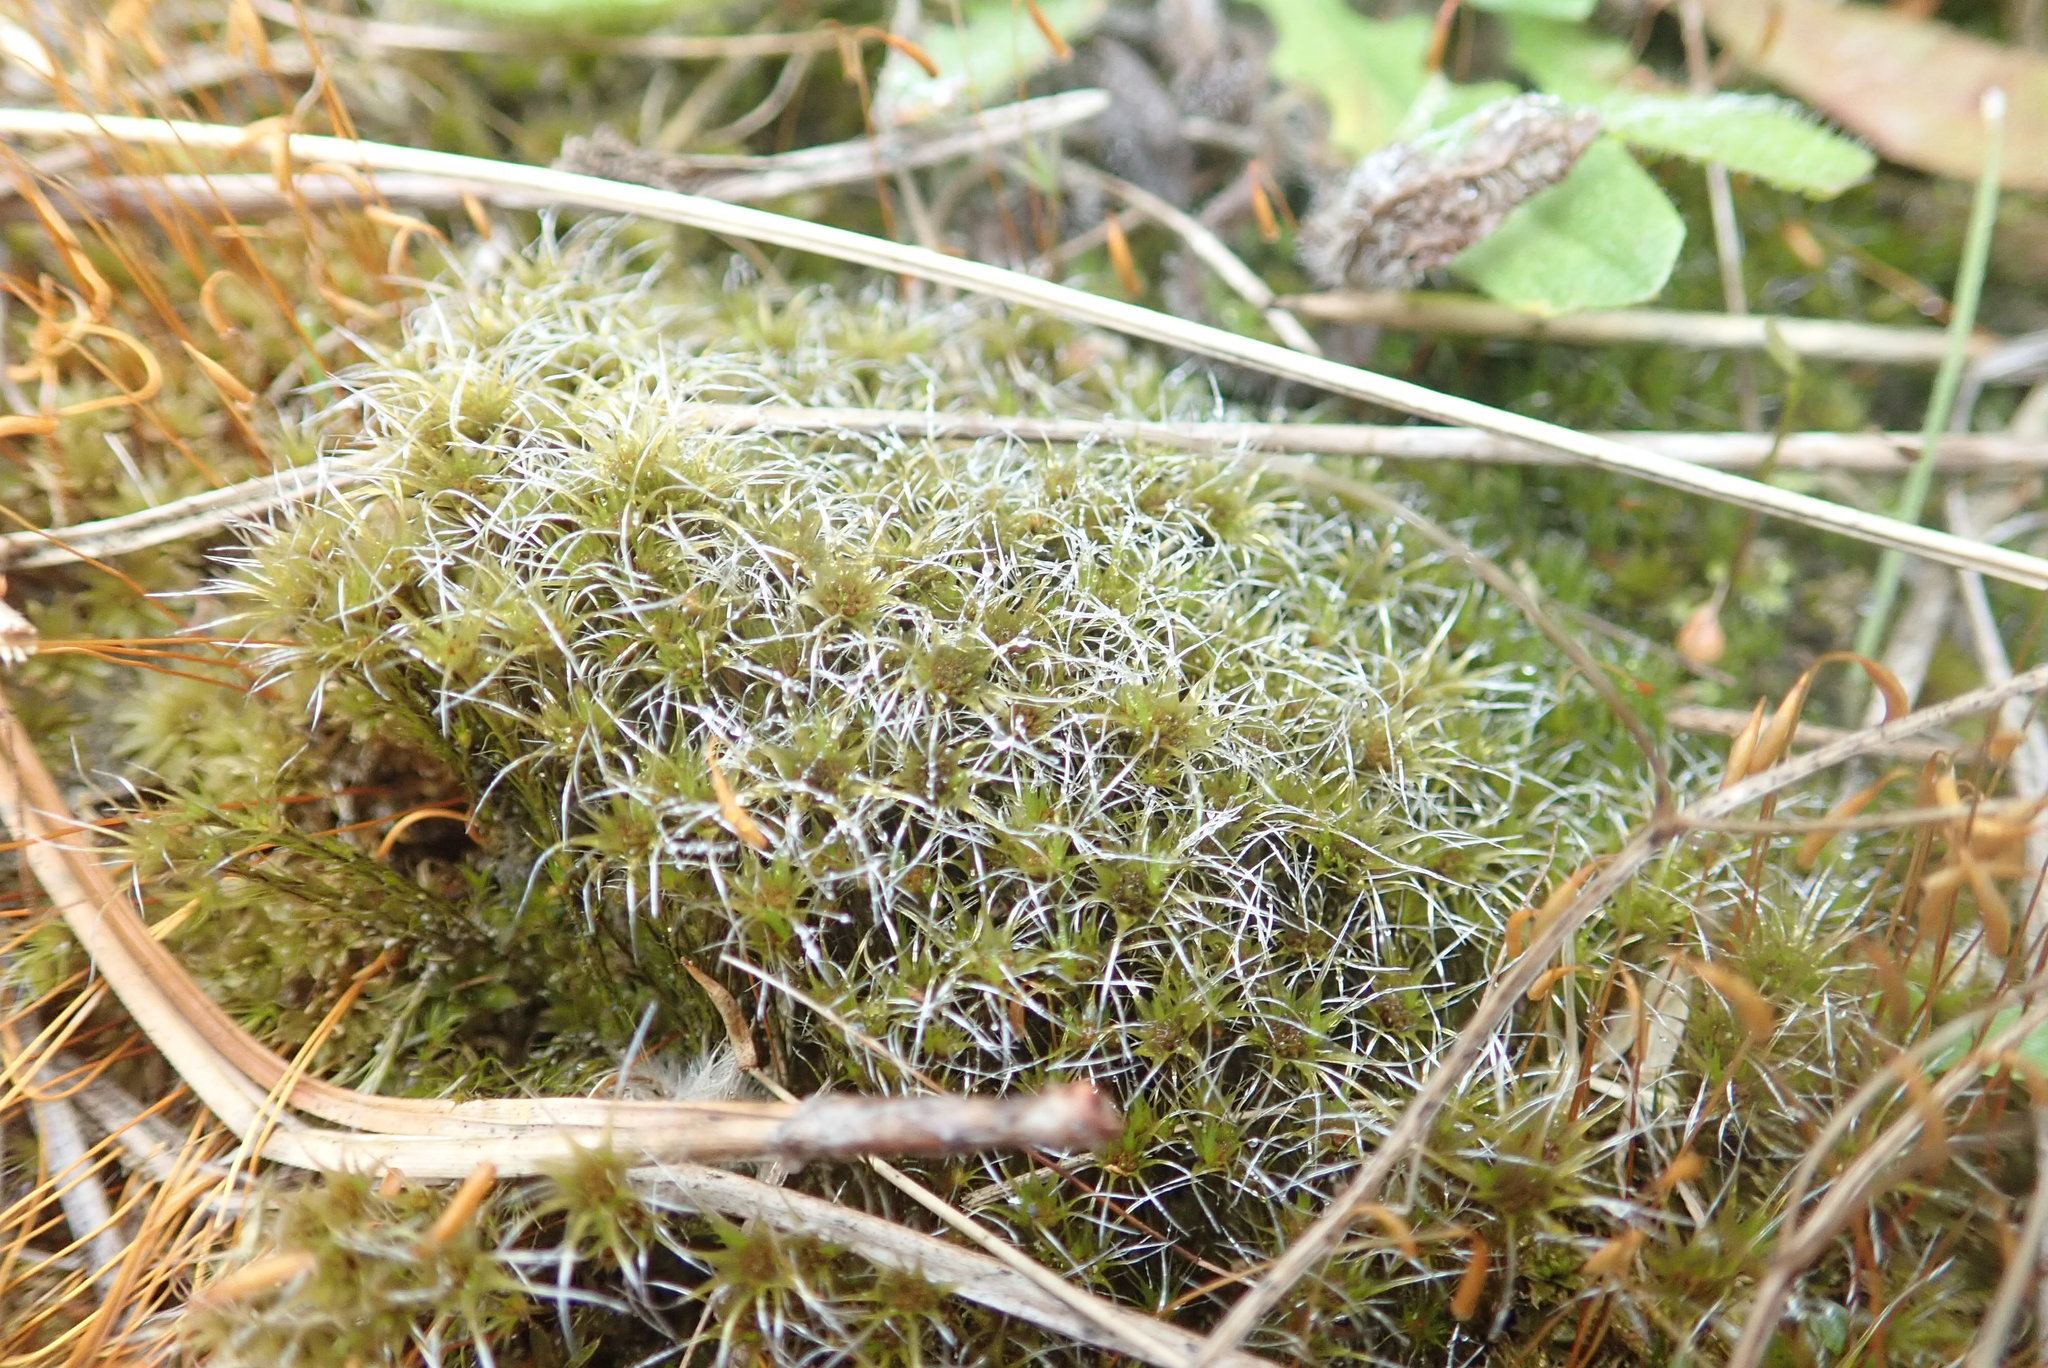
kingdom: Plantae
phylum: Bryophyta
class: Bryopsida
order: Dicranales
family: Leucobryaceae
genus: Campylopus
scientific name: Campylopus introflexus
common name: Heath star moss
